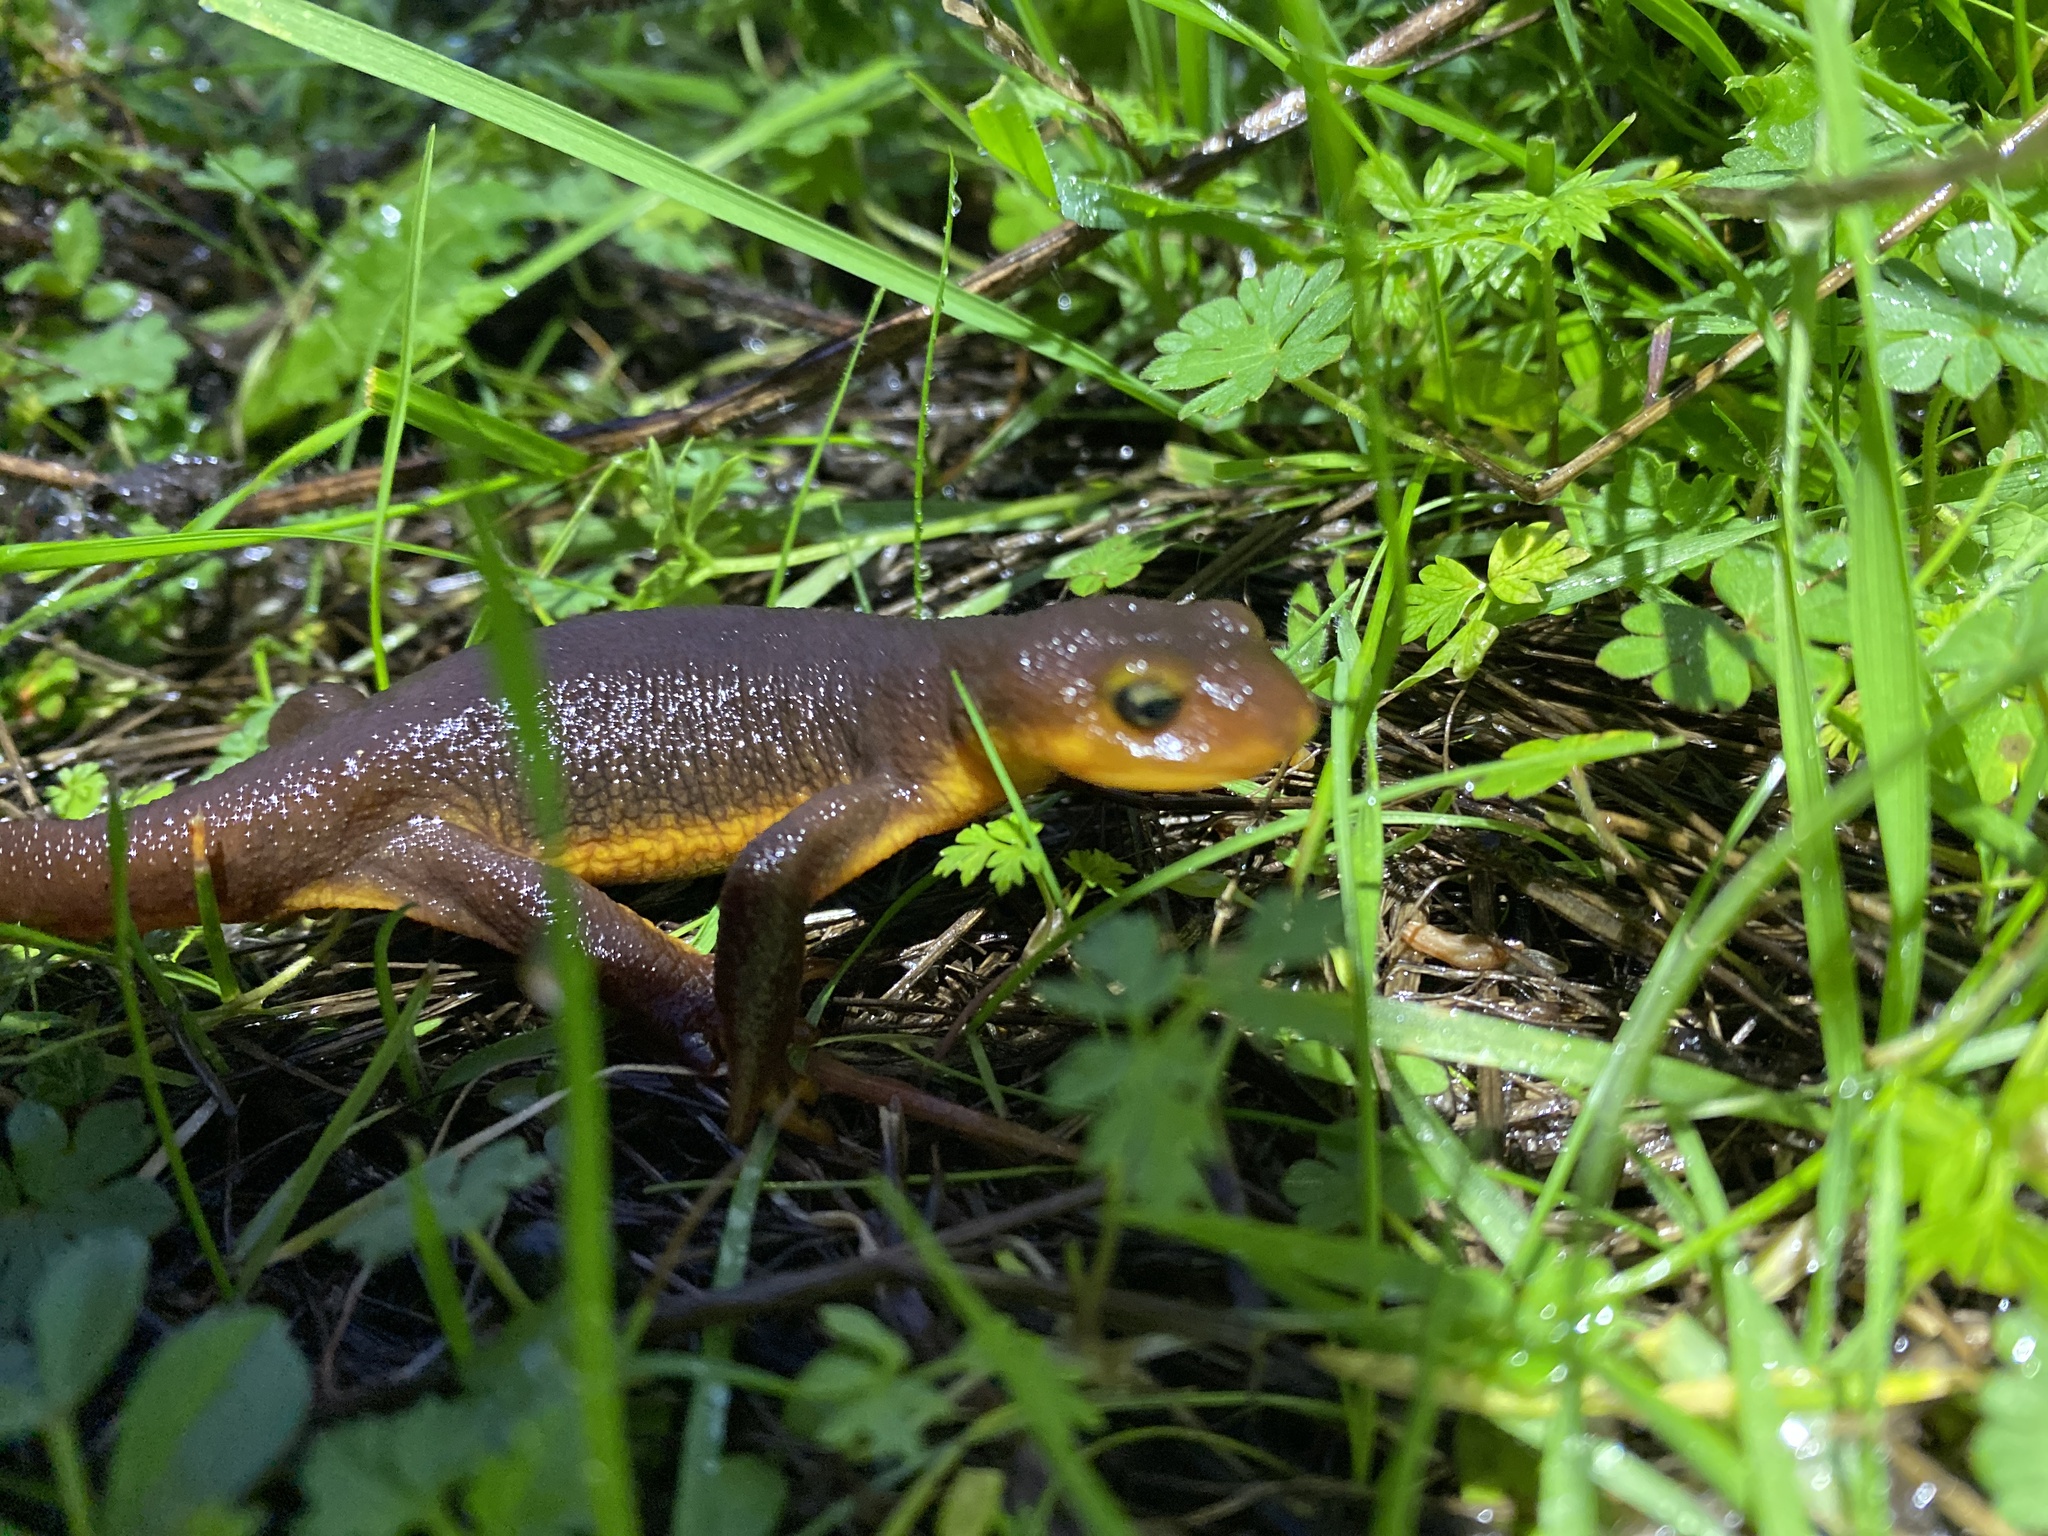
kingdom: Animalia
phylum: Chordata
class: Amphibia
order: Caudata
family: Salamandridae
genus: Taricha
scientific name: Taricha torosa
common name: California newt
